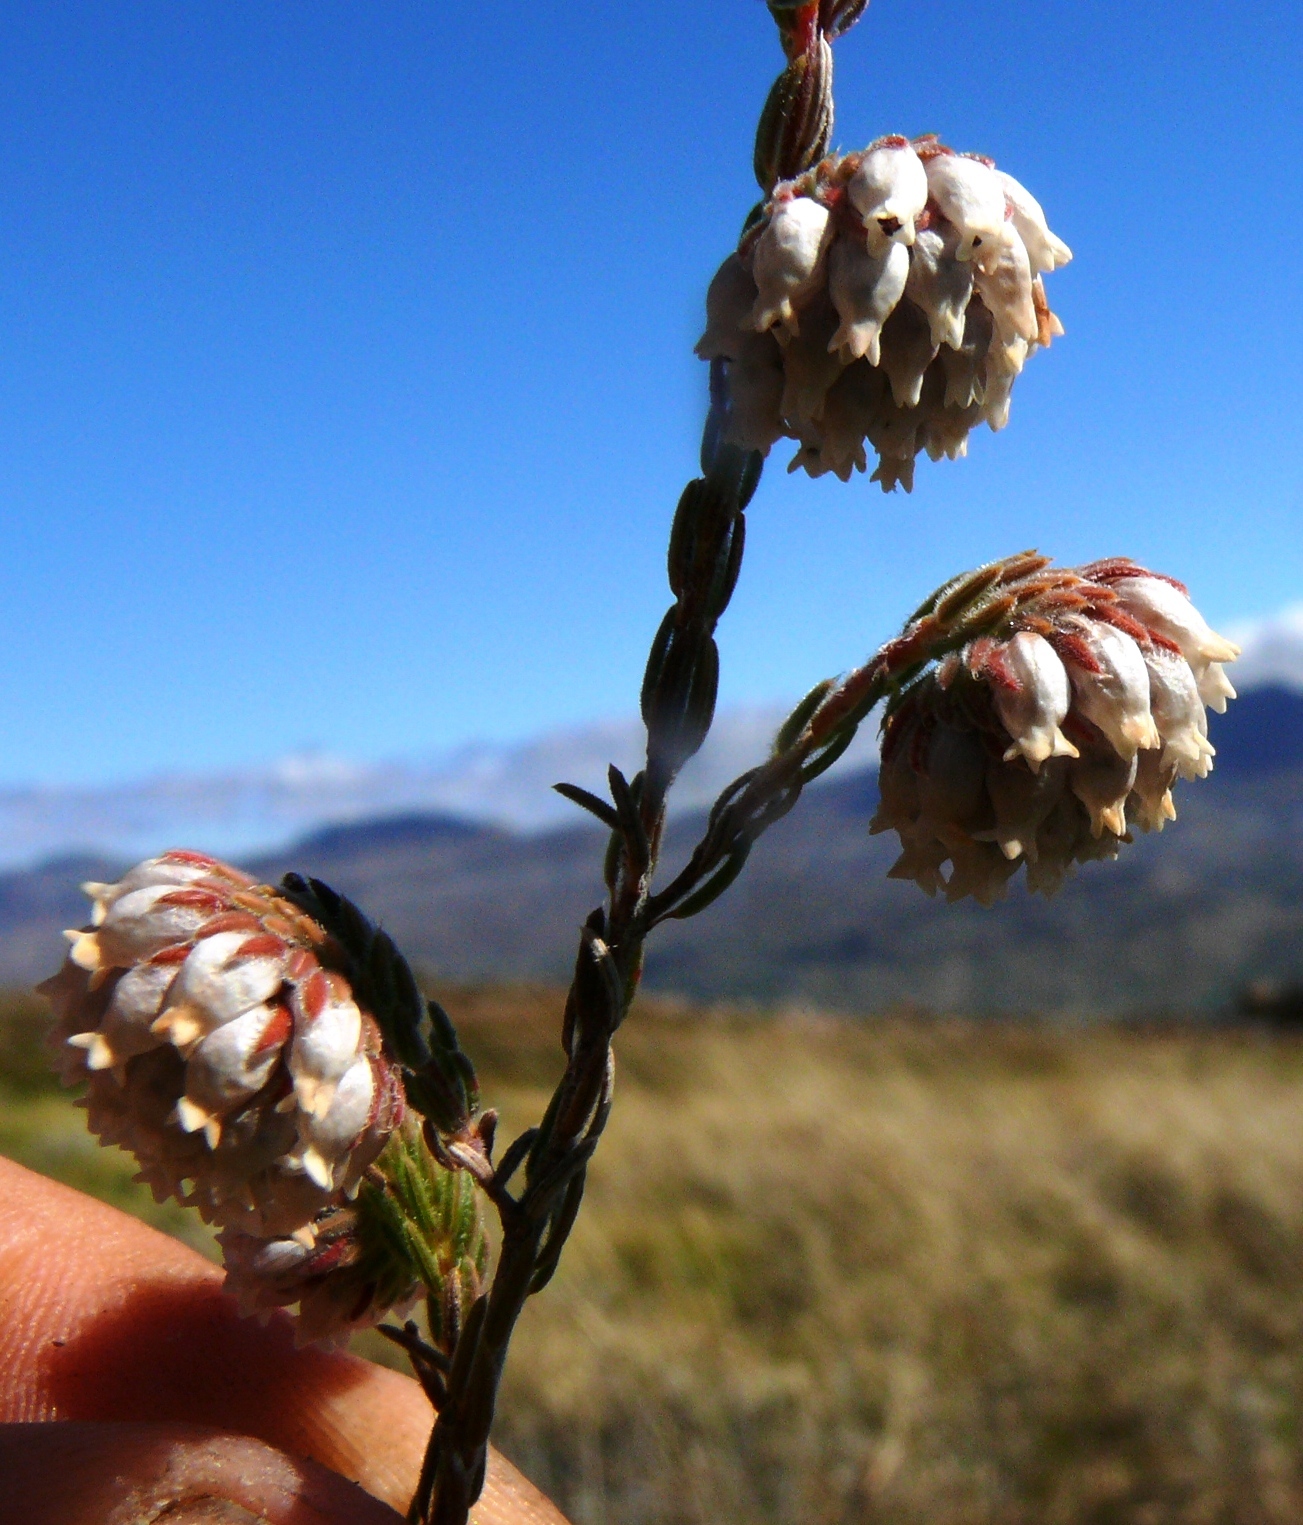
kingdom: Plantae
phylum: Tracheophyta
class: Magnoliopsida
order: Ericales
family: Ericaceae
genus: Erica
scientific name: Erica maderi
